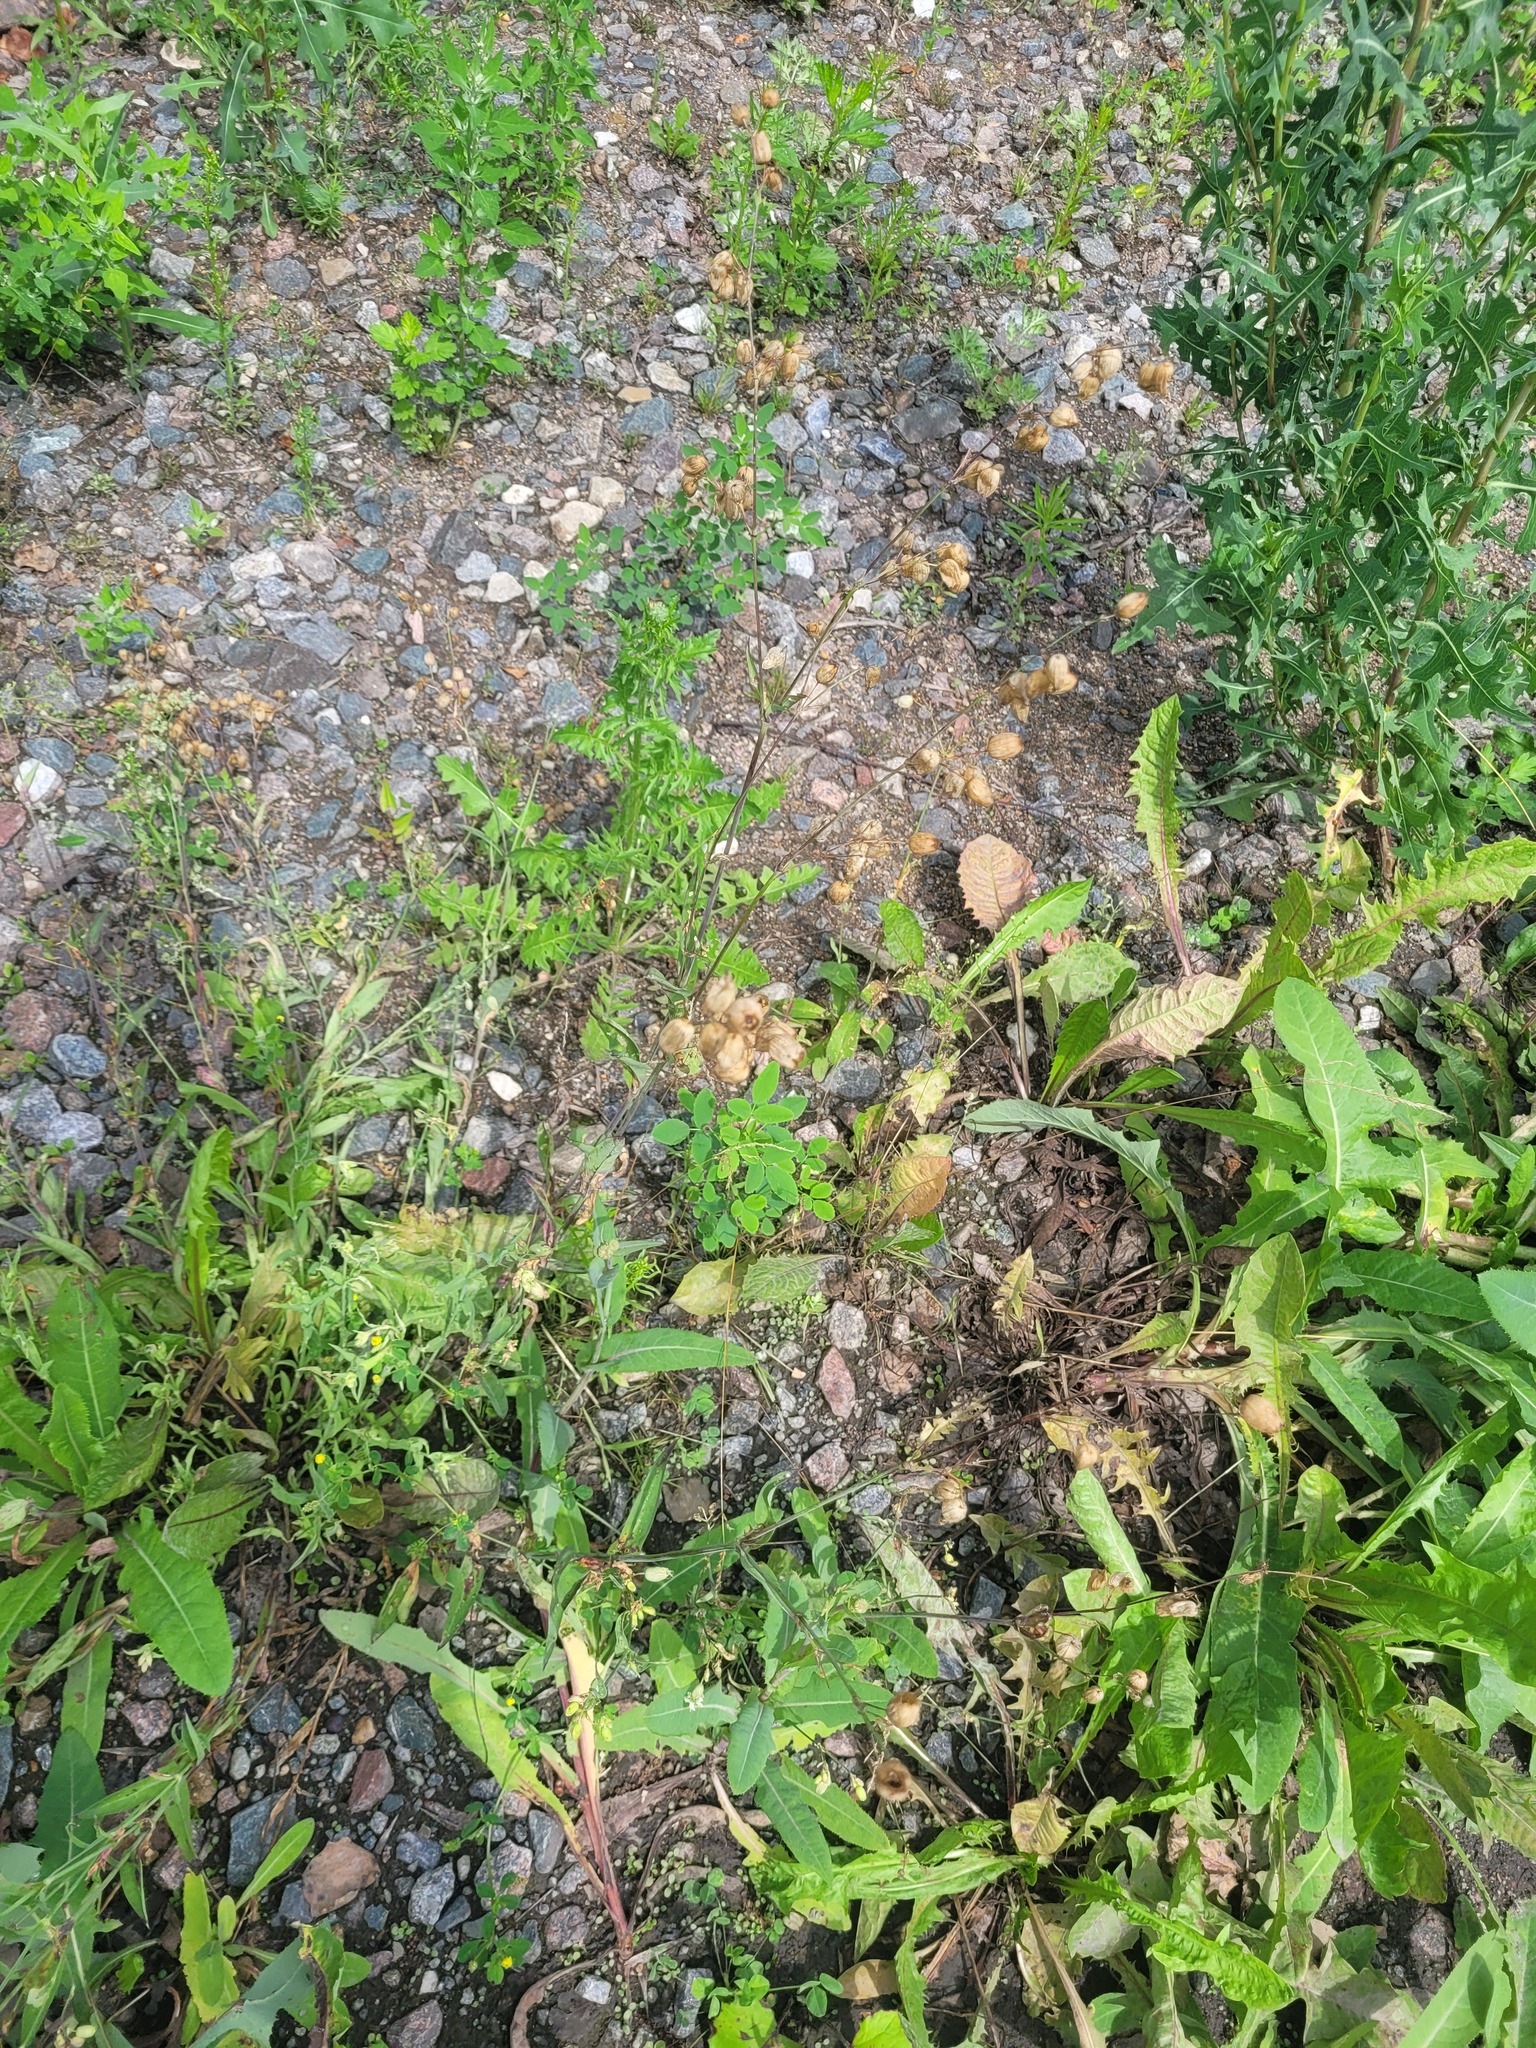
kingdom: Plantae
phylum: Tracheophyta
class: Magnoliopsida
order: Caryophyllales
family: Caryophyllaceae
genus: Silene
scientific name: Silene vulgaris
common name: Bladder campion
